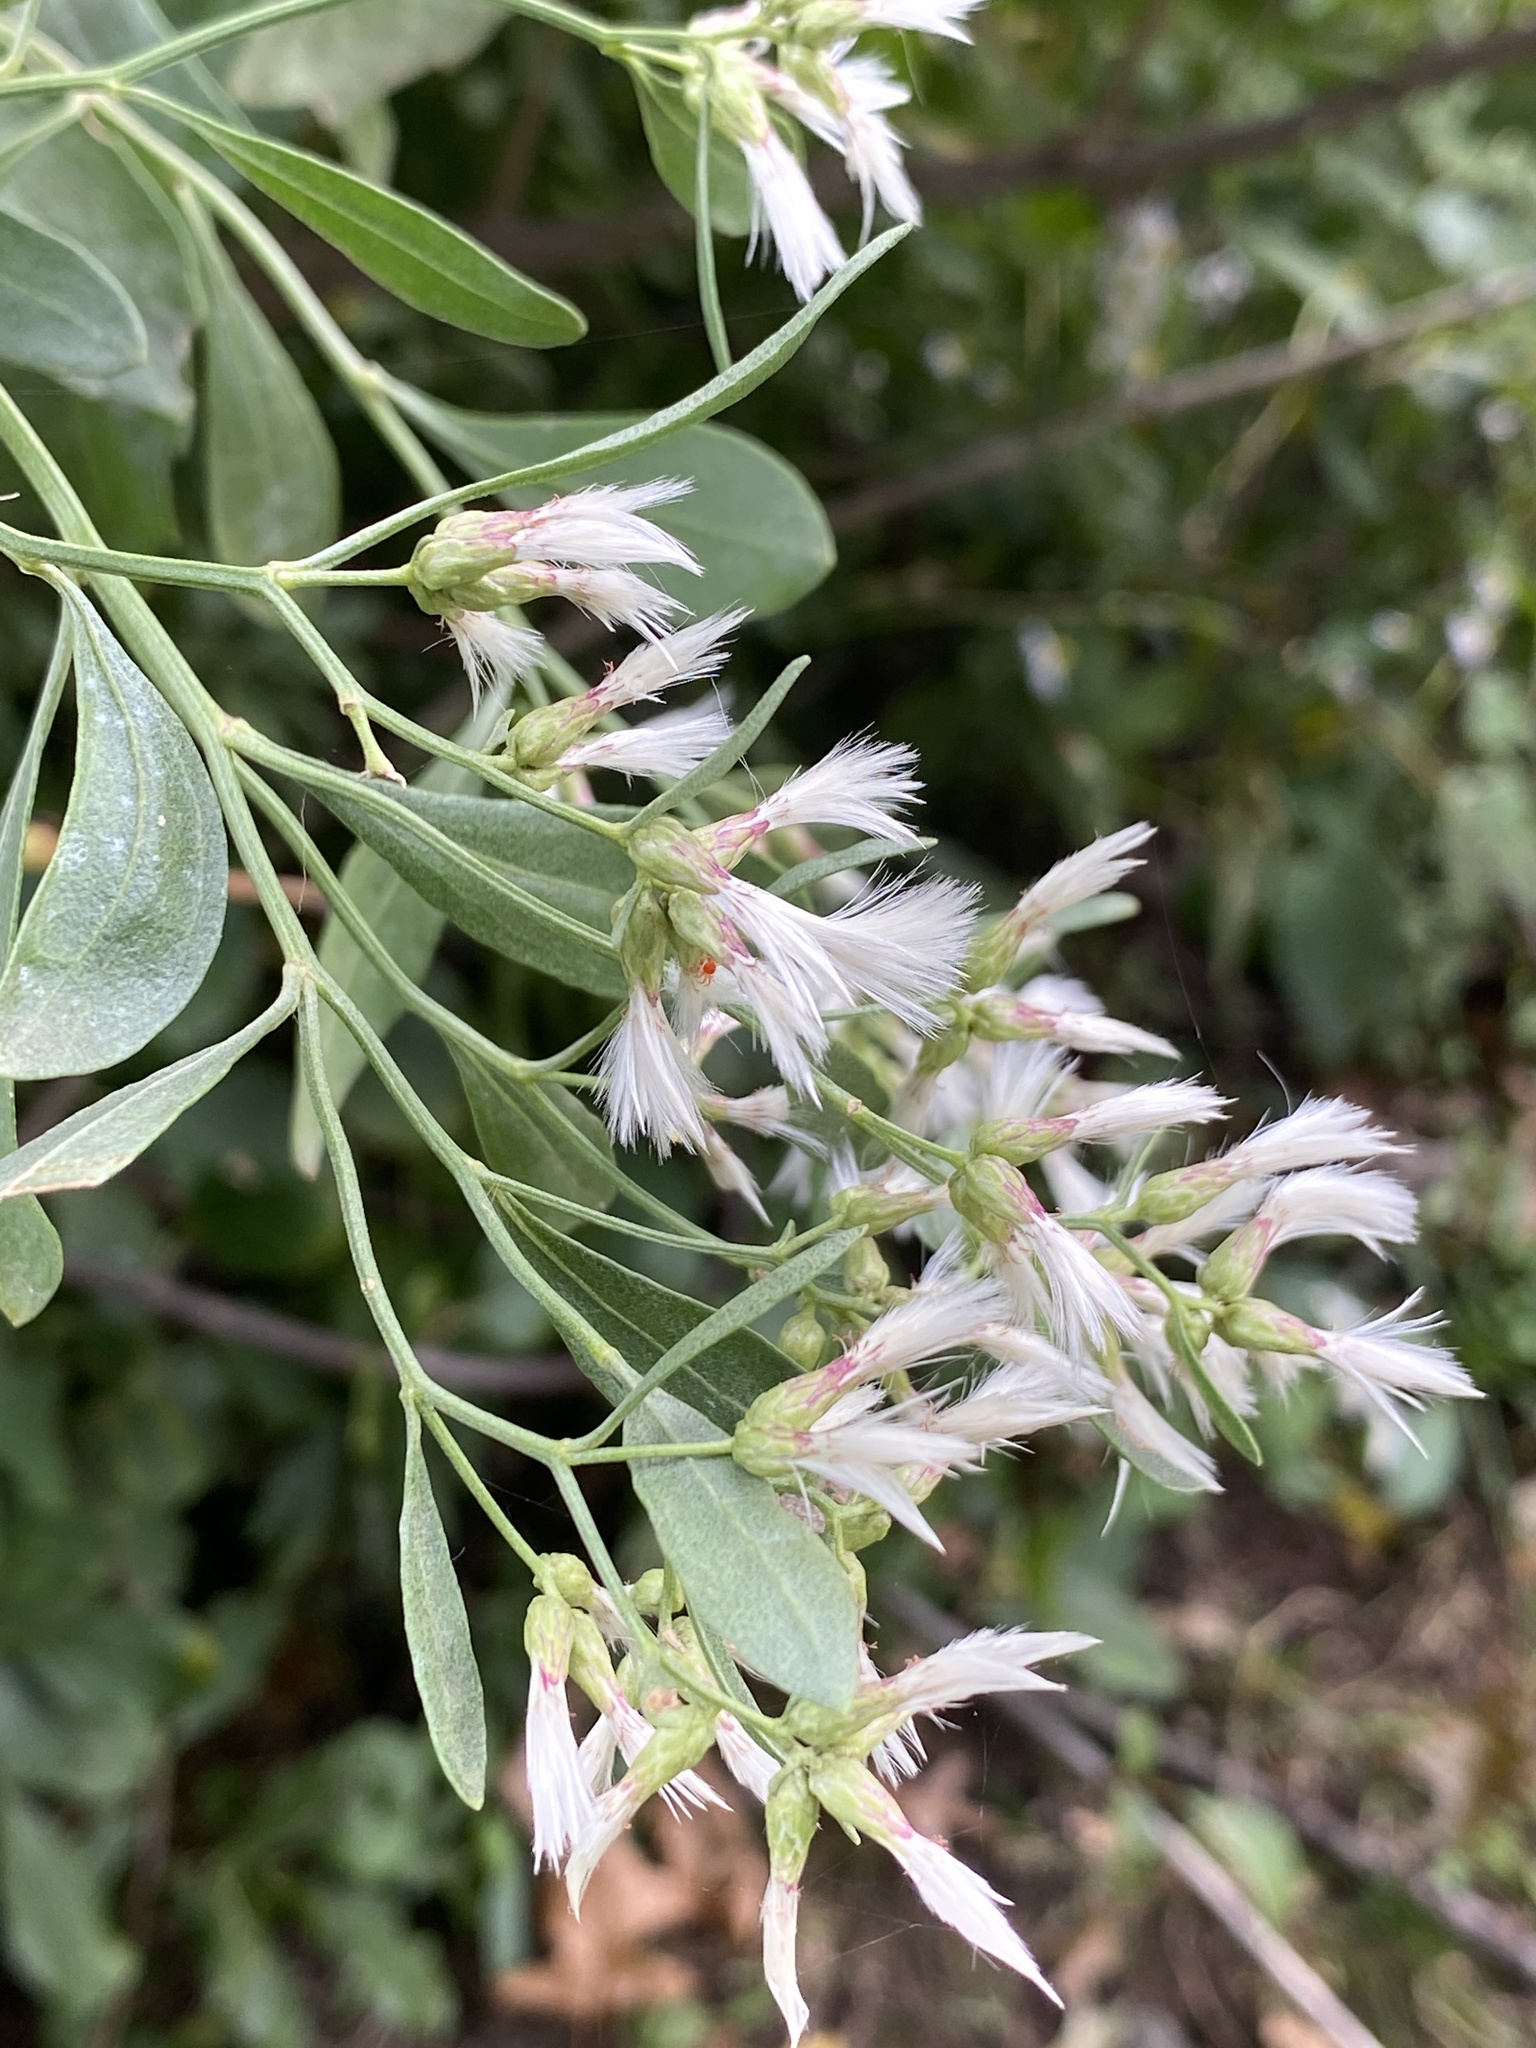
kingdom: Plantae
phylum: Tracheophyta
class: Magnoliopsida
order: Asterales
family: Asteraceae
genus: Baccharis
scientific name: Baccharis halimifolia
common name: Eastern baccharis
